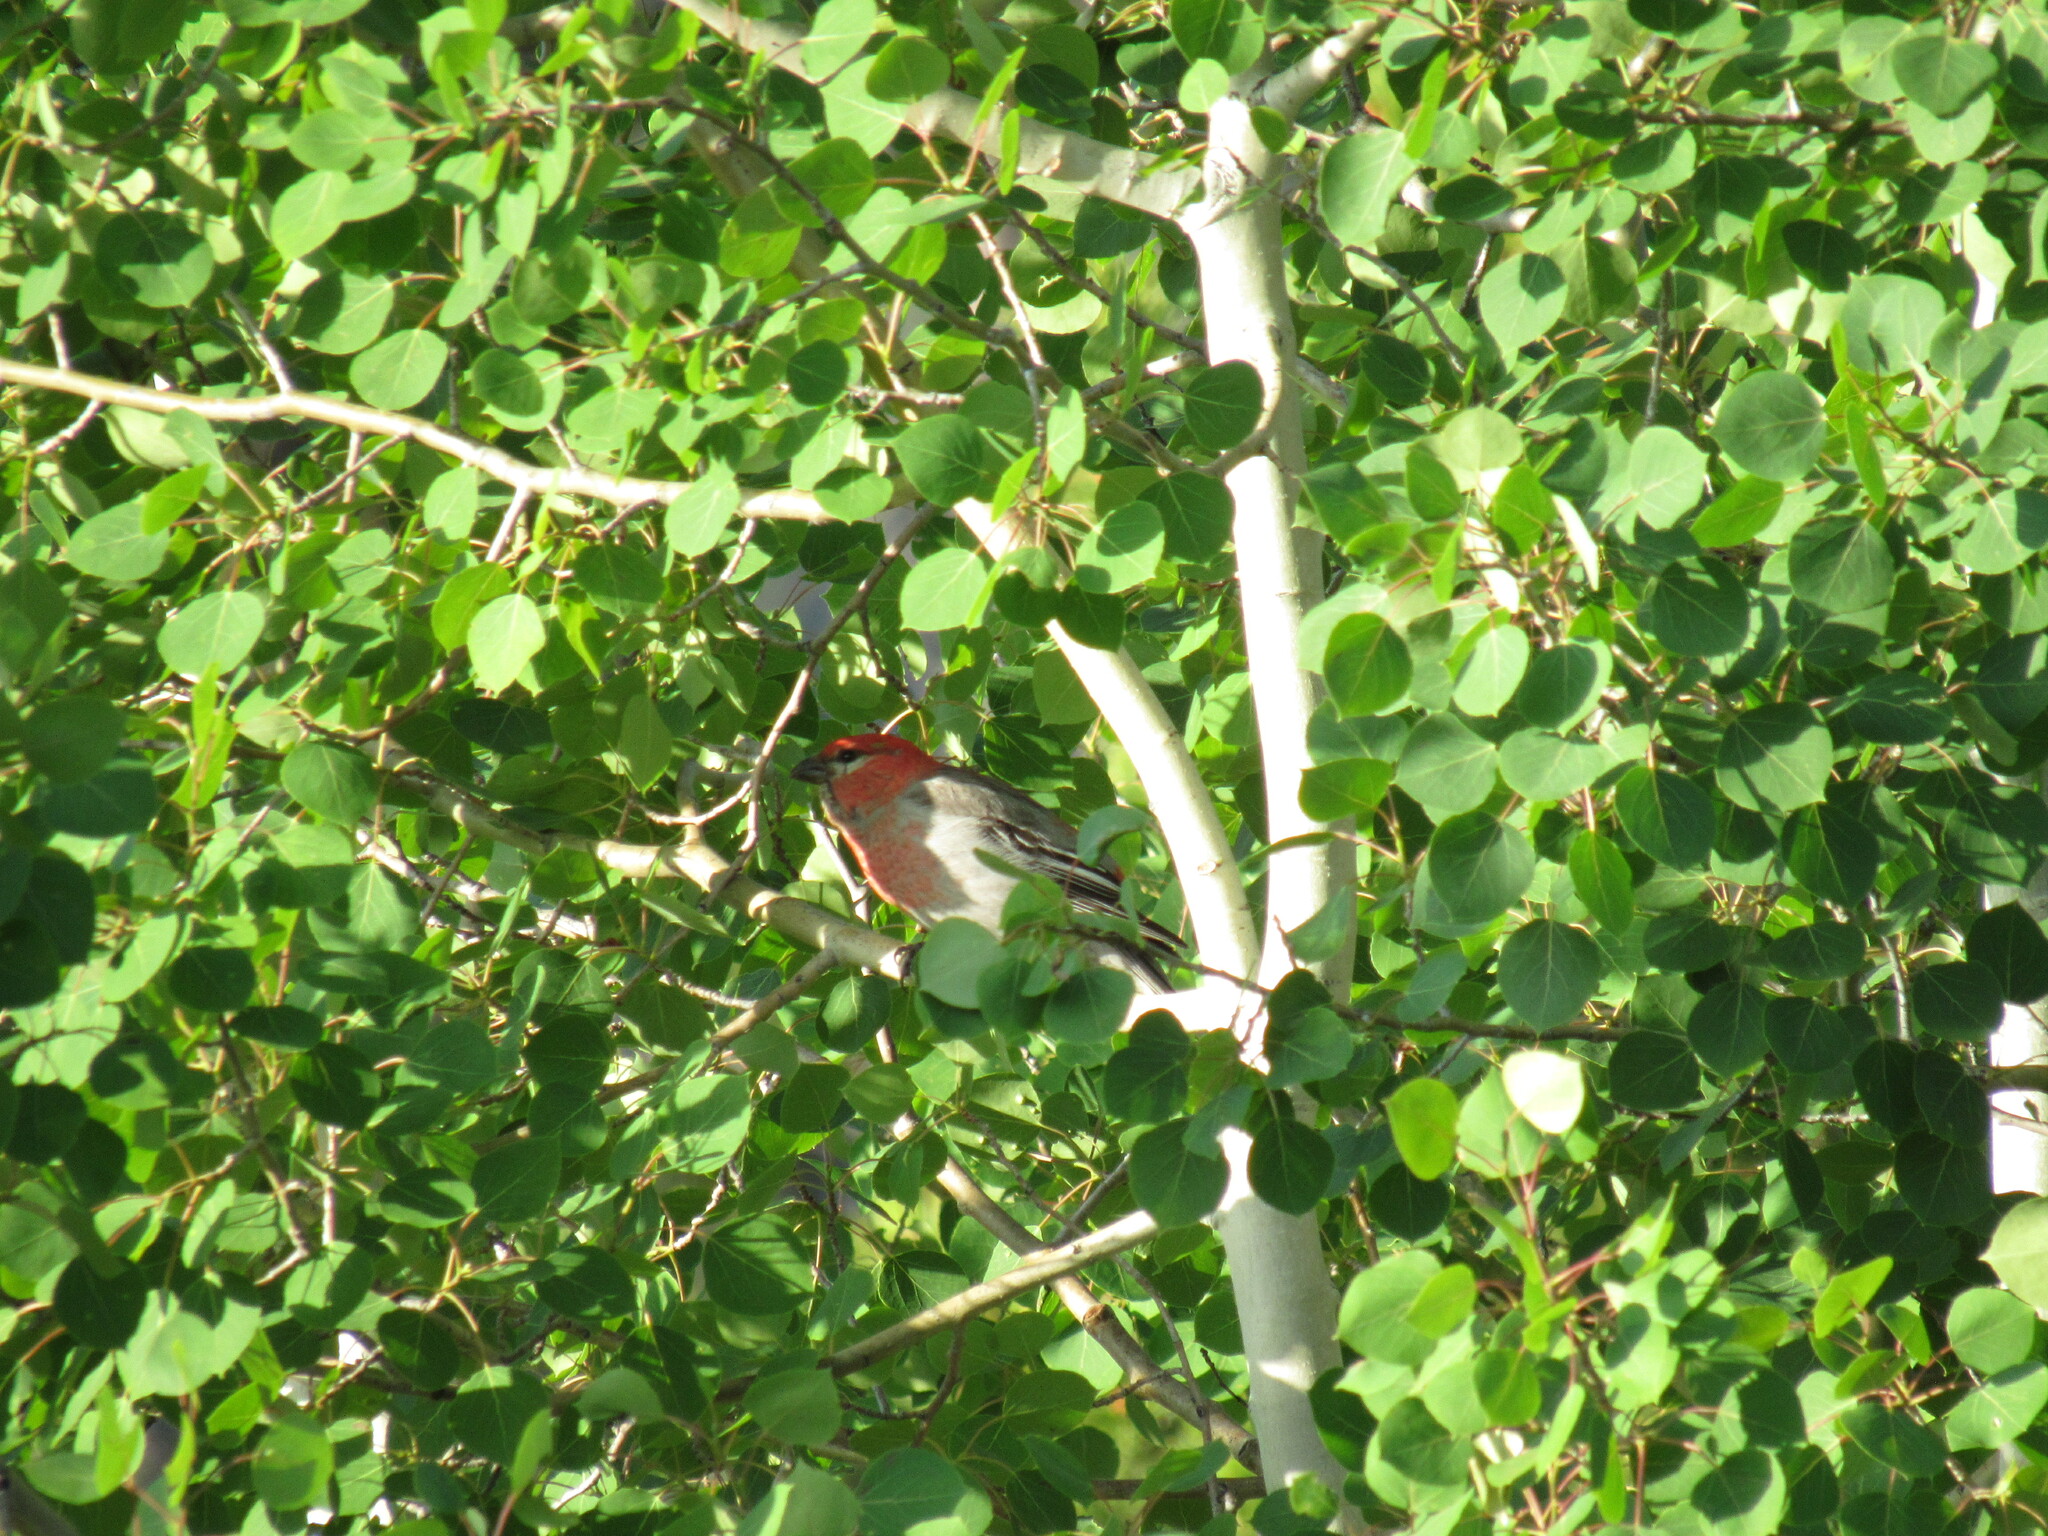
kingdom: Animalia
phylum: Chordata
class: Aves
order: Passeriformes
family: Fringillidae
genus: Pinicola
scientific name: Pinicola enucleator
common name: Pine grosbeak
